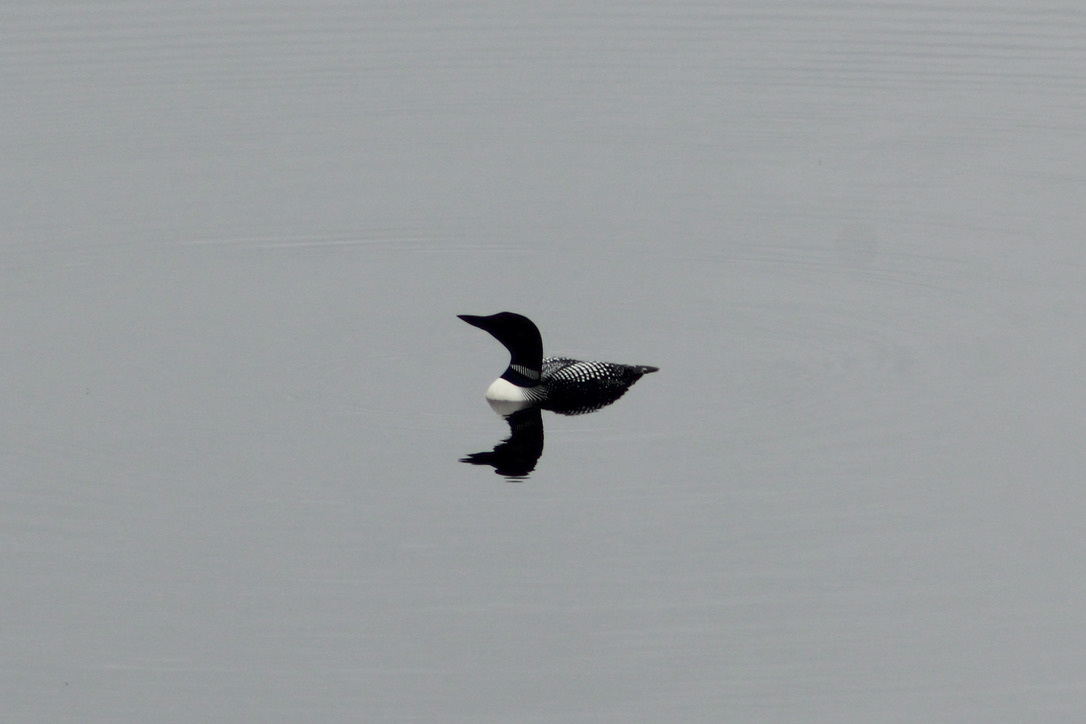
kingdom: Animalia
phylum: Chordata
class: Aves
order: Gaviiformes
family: Gaviidae
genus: Gavia
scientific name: Gavia immer
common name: Common loon
